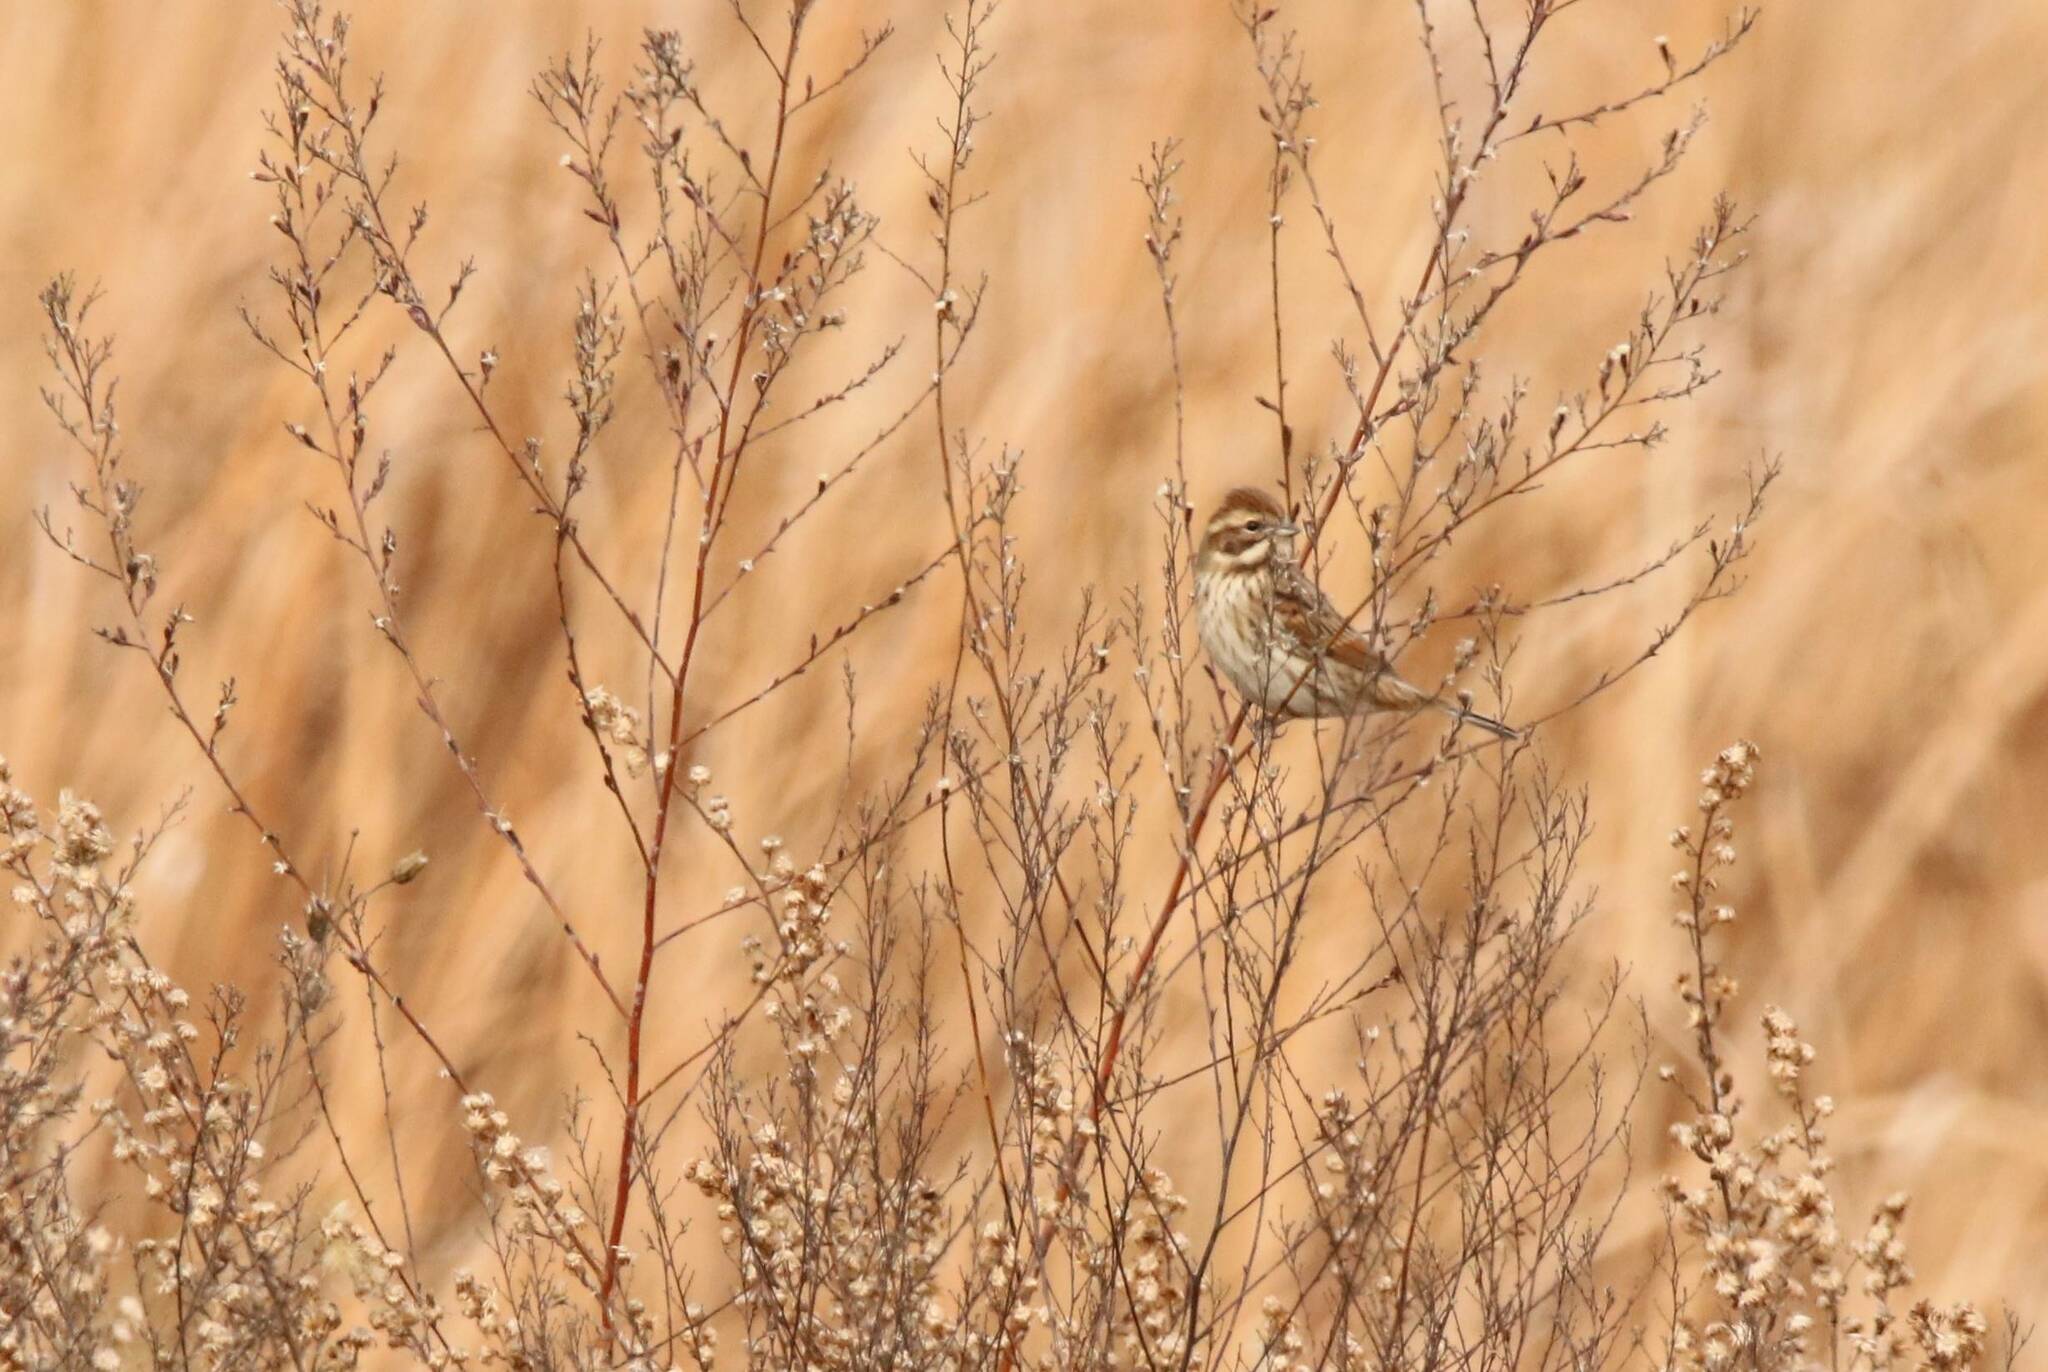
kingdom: Animalia
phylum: Chordata
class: Aves
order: Passeriformes
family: Emberizidae
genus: Emberiza
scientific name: Emberiza schoeniclus
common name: Reed bunting
